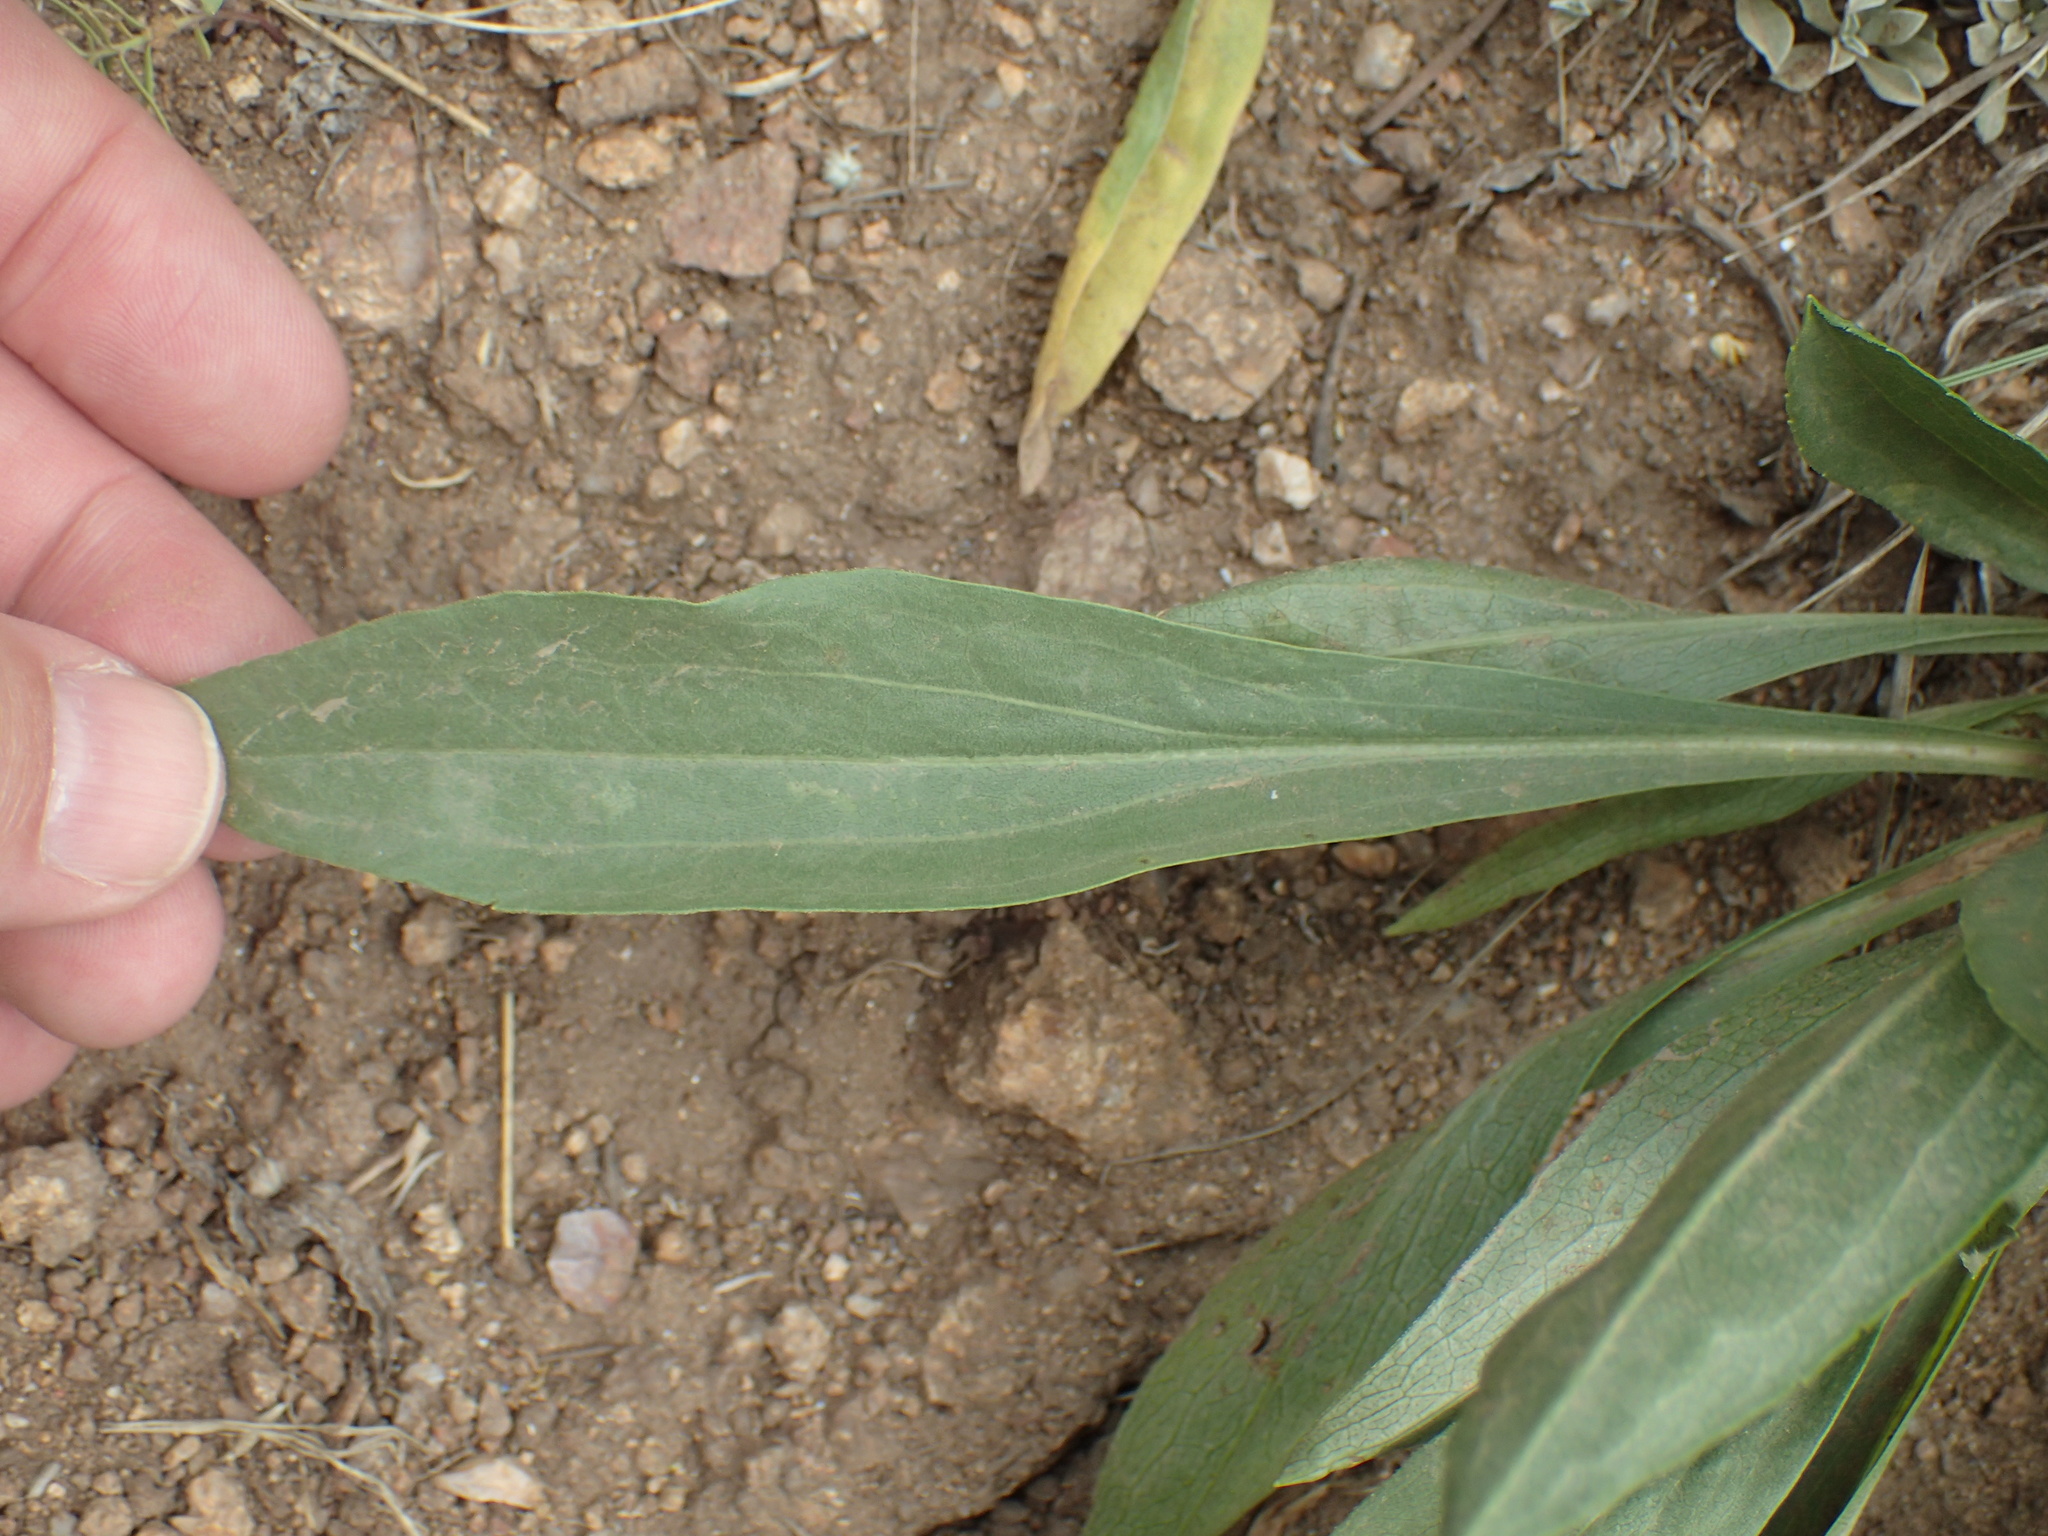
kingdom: Plantae
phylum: Tracheophyta
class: Magnoliopsida
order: Asterales
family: Asteraceae
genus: Solidago
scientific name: Solidago missouriensis
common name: Prairie goldenrod
